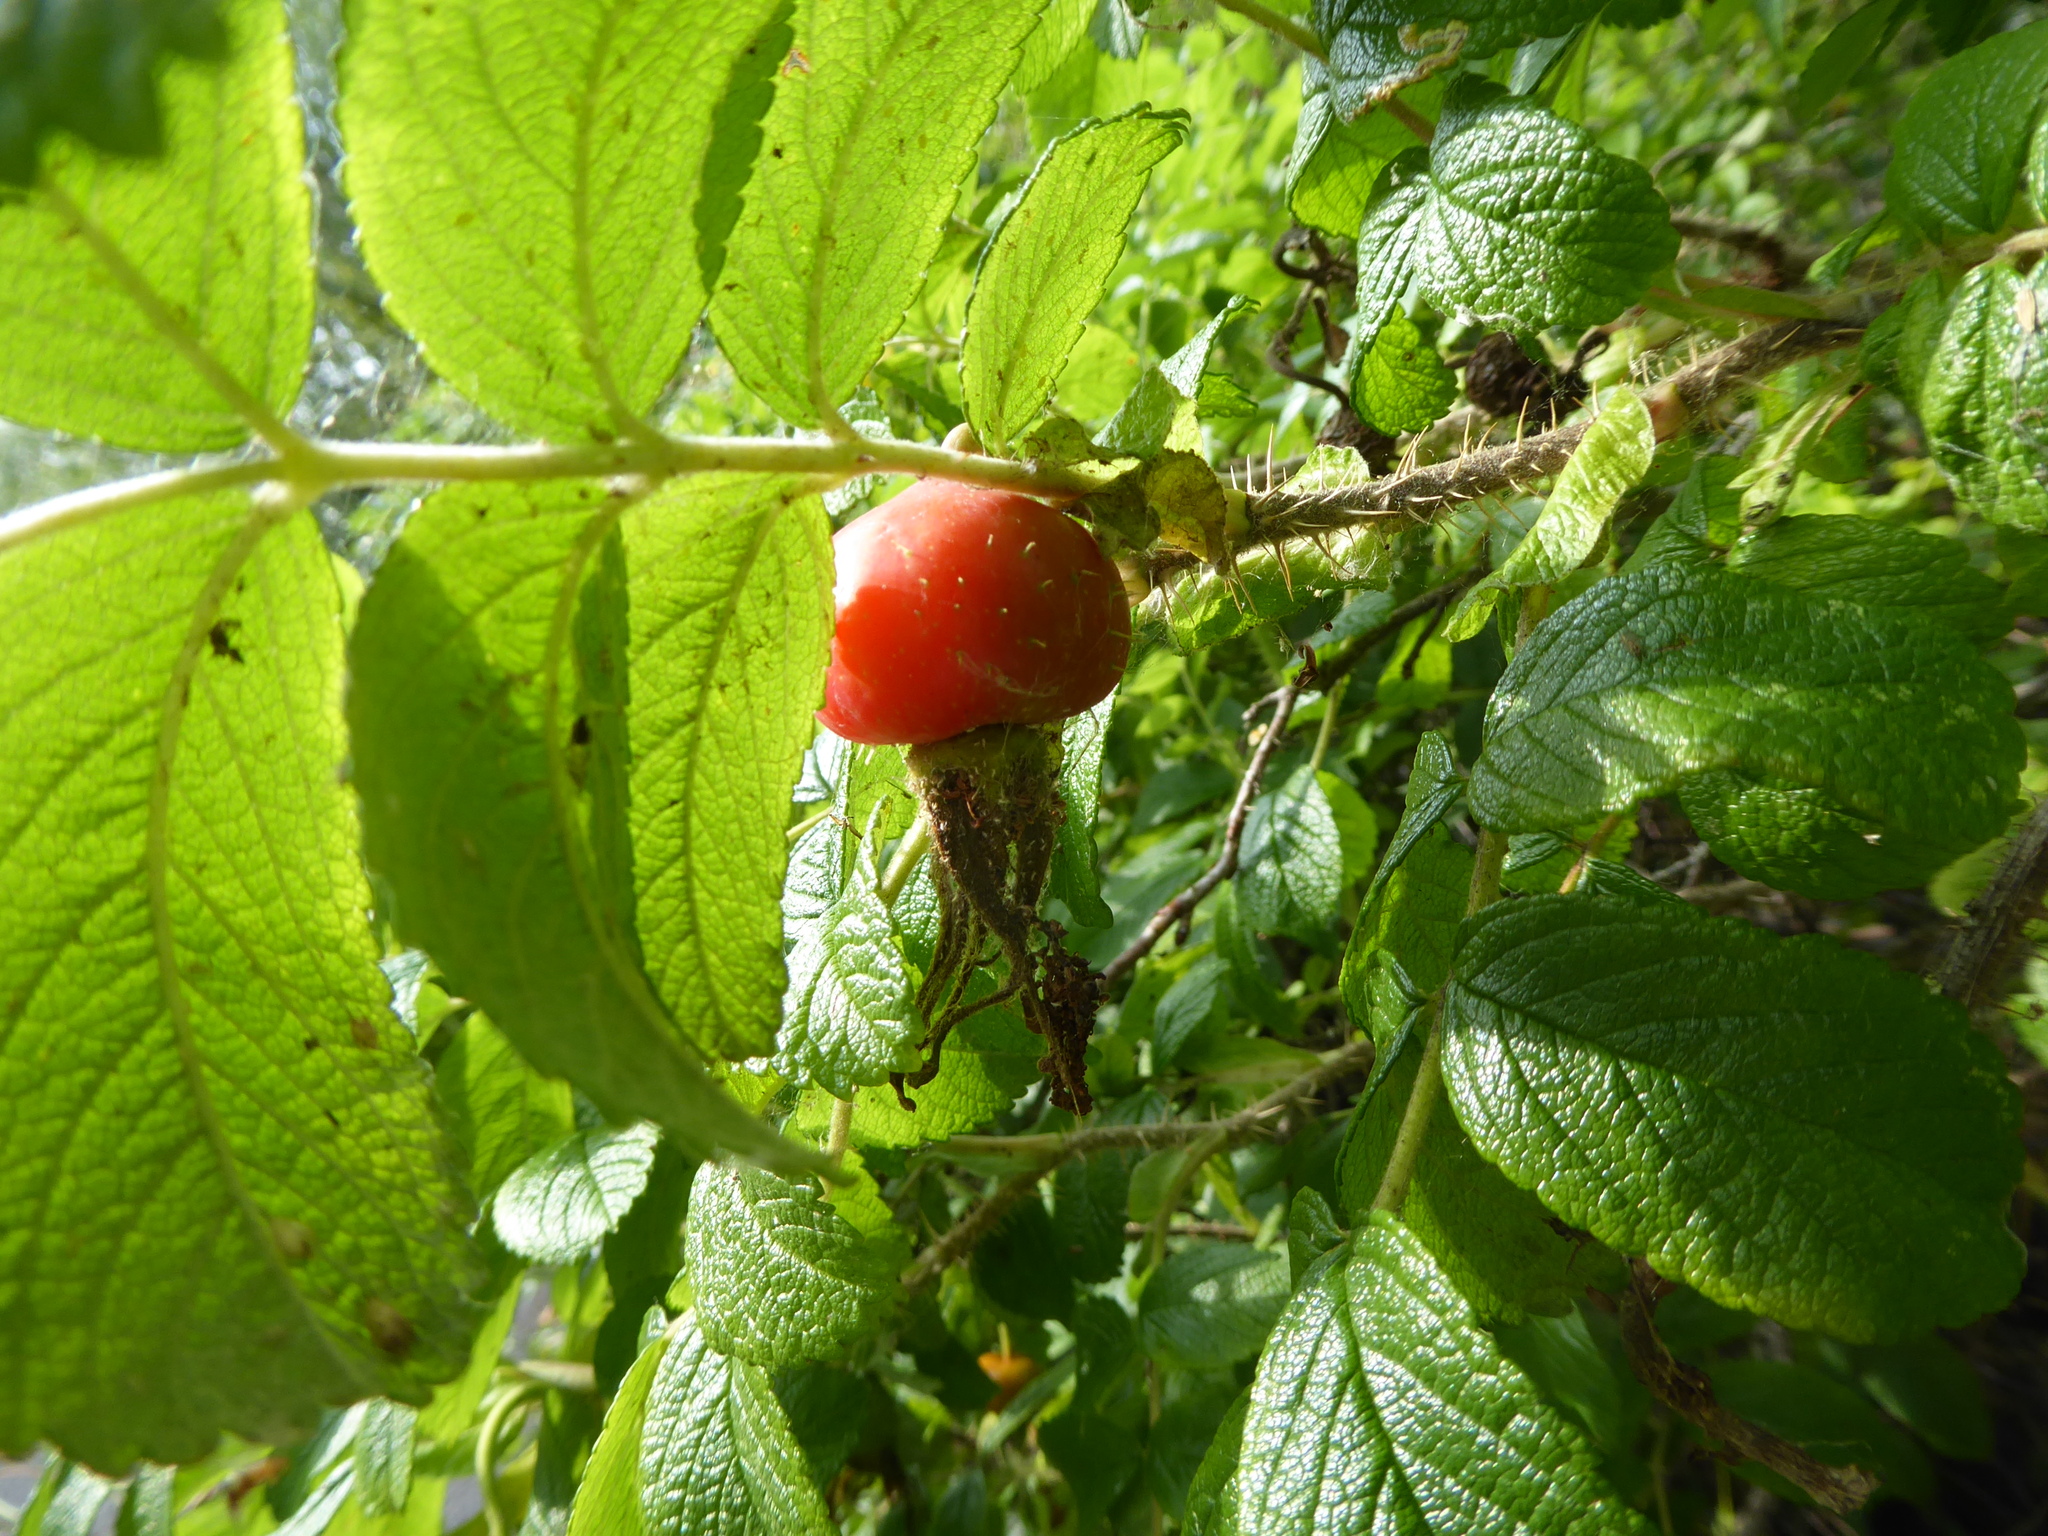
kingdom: Plantae
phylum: Tracheophyta
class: Magnoliopsida
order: Rosales
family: Rosaceae
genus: Rosa
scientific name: Rosa rugosa
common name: Japanese rose
